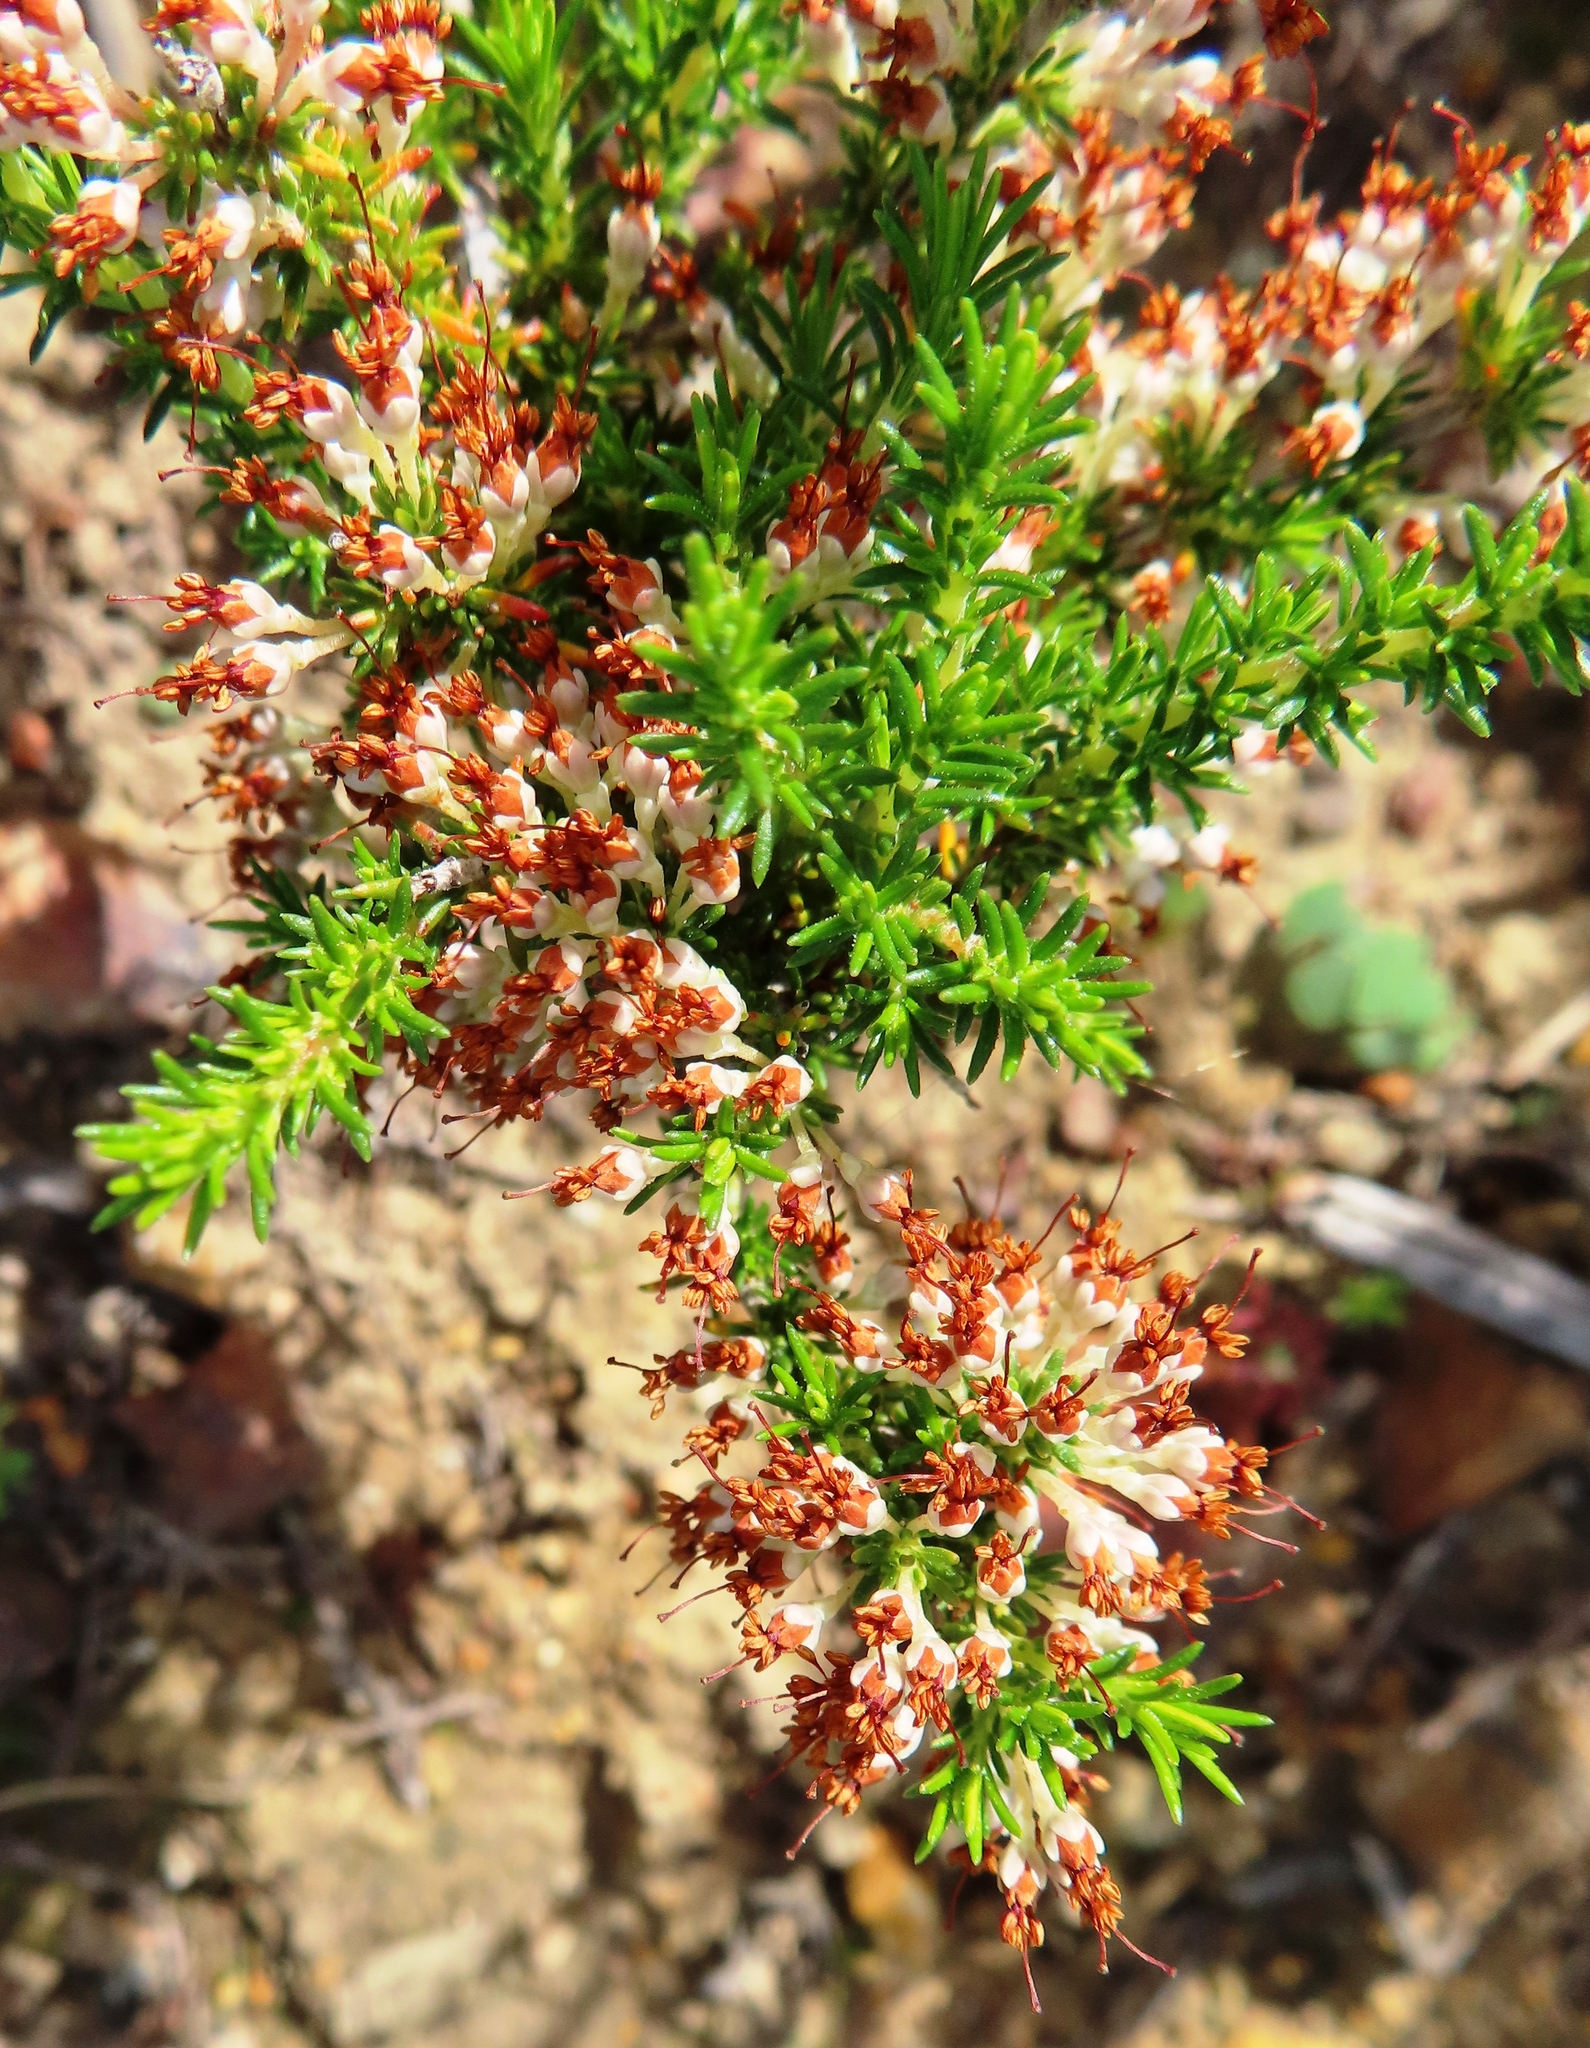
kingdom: Plantae
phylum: Tracheophyta
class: Magnoliopsida
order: Ericales
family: Ericaceae
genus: Erica
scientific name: Erica imbricata
